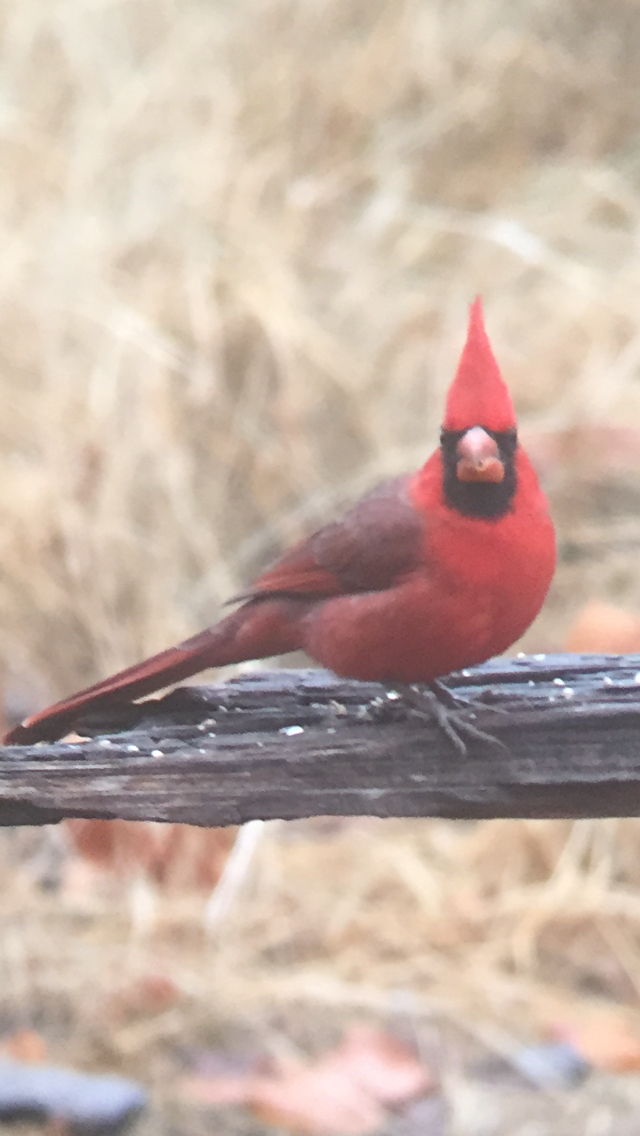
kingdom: Animalia
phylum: Chordata
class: Aves
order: Passeriformes
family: Cardinalidae
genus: Cardinalis
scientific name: Cardinalis cardinalis
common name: Northern cardinal
